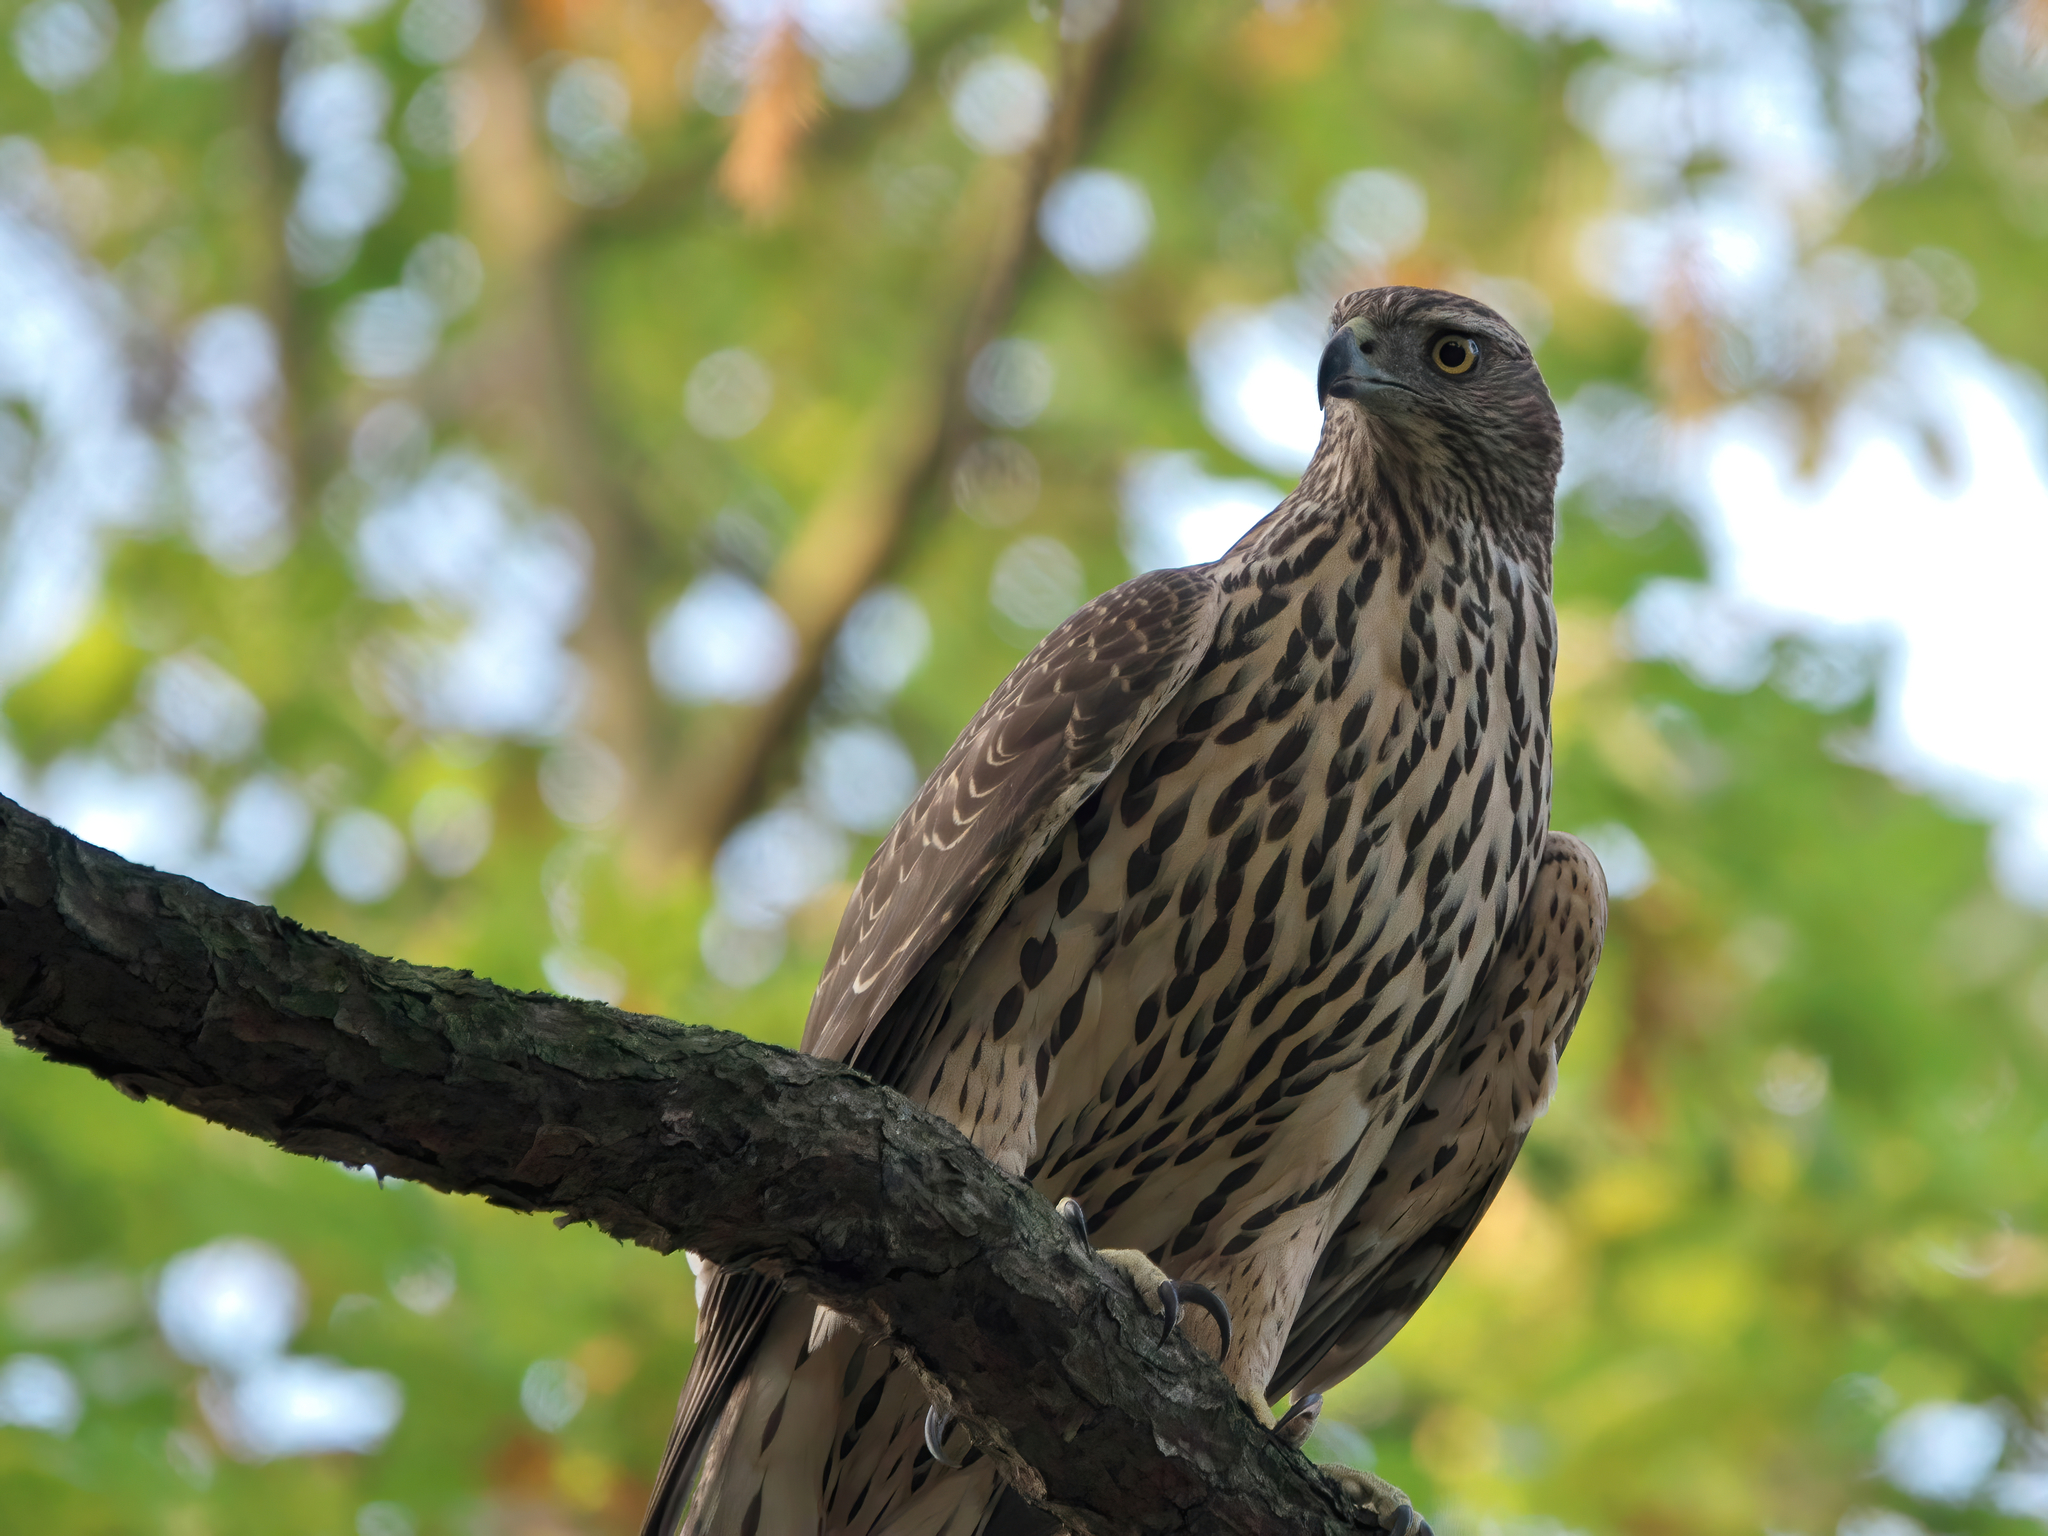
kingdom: Animalia
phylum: Chordata
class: Aves
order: Accipitriformes
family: Accipitridae
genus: Accipiter
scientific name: Accipiter gentilis
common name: Northern goshawk
